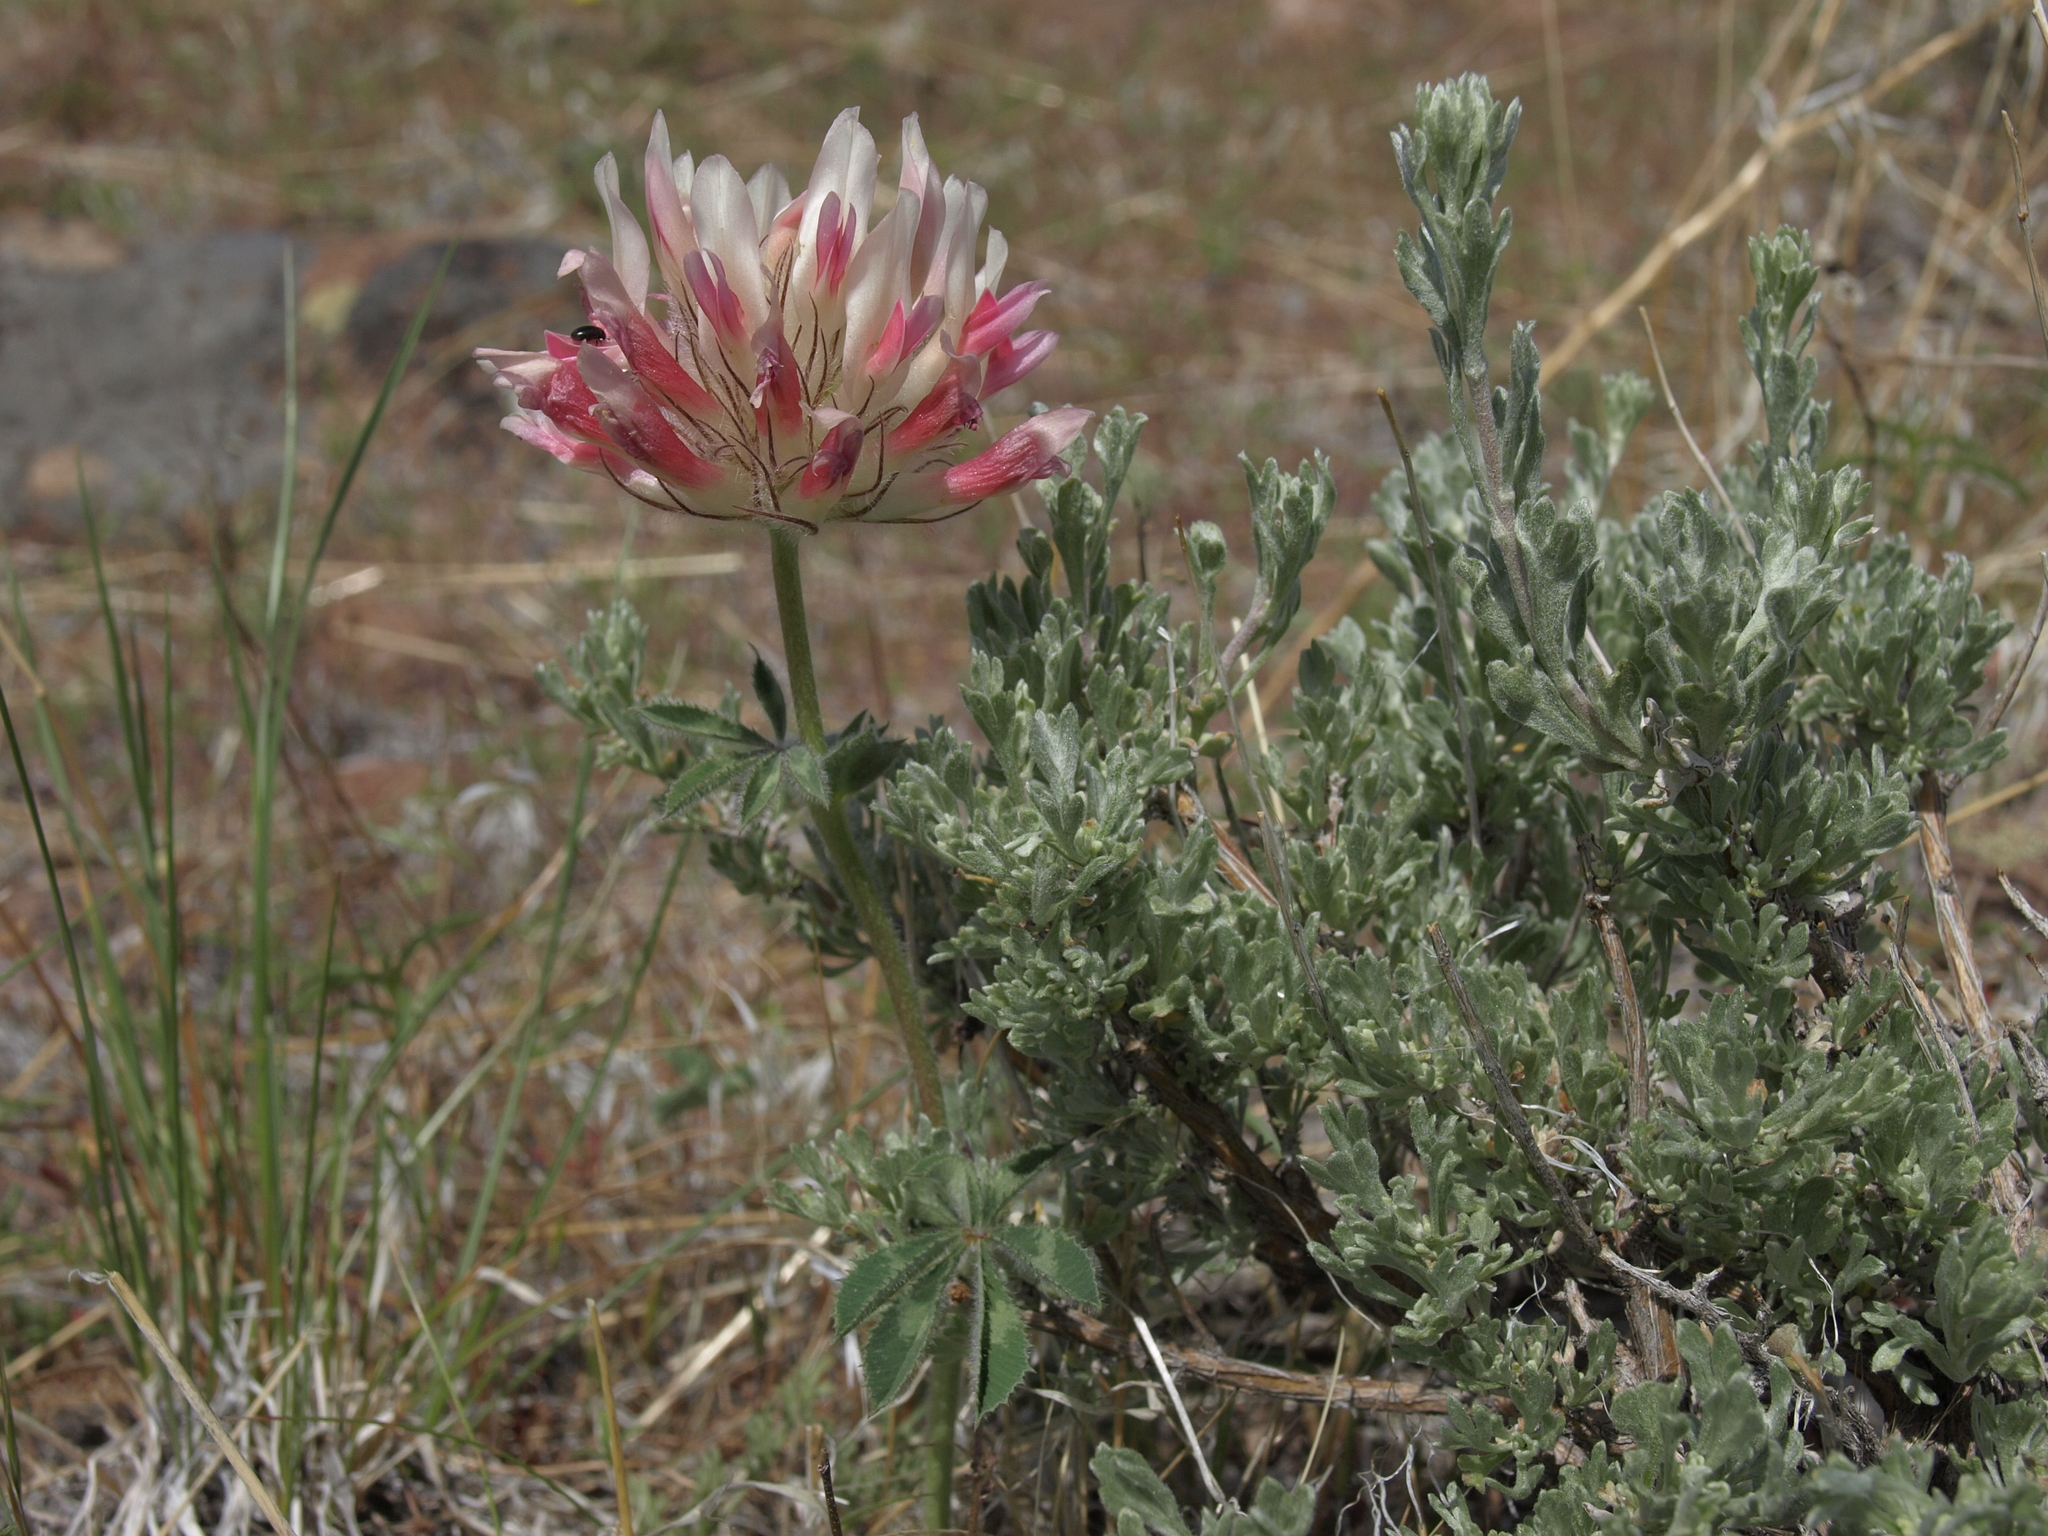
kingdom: Plantae
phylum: Tracheophyta
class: Magnoliopsida
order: Fabales
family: Fabaceae
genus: Trifolium
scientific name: Trifolium macrocephalum
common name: Large-head clover
